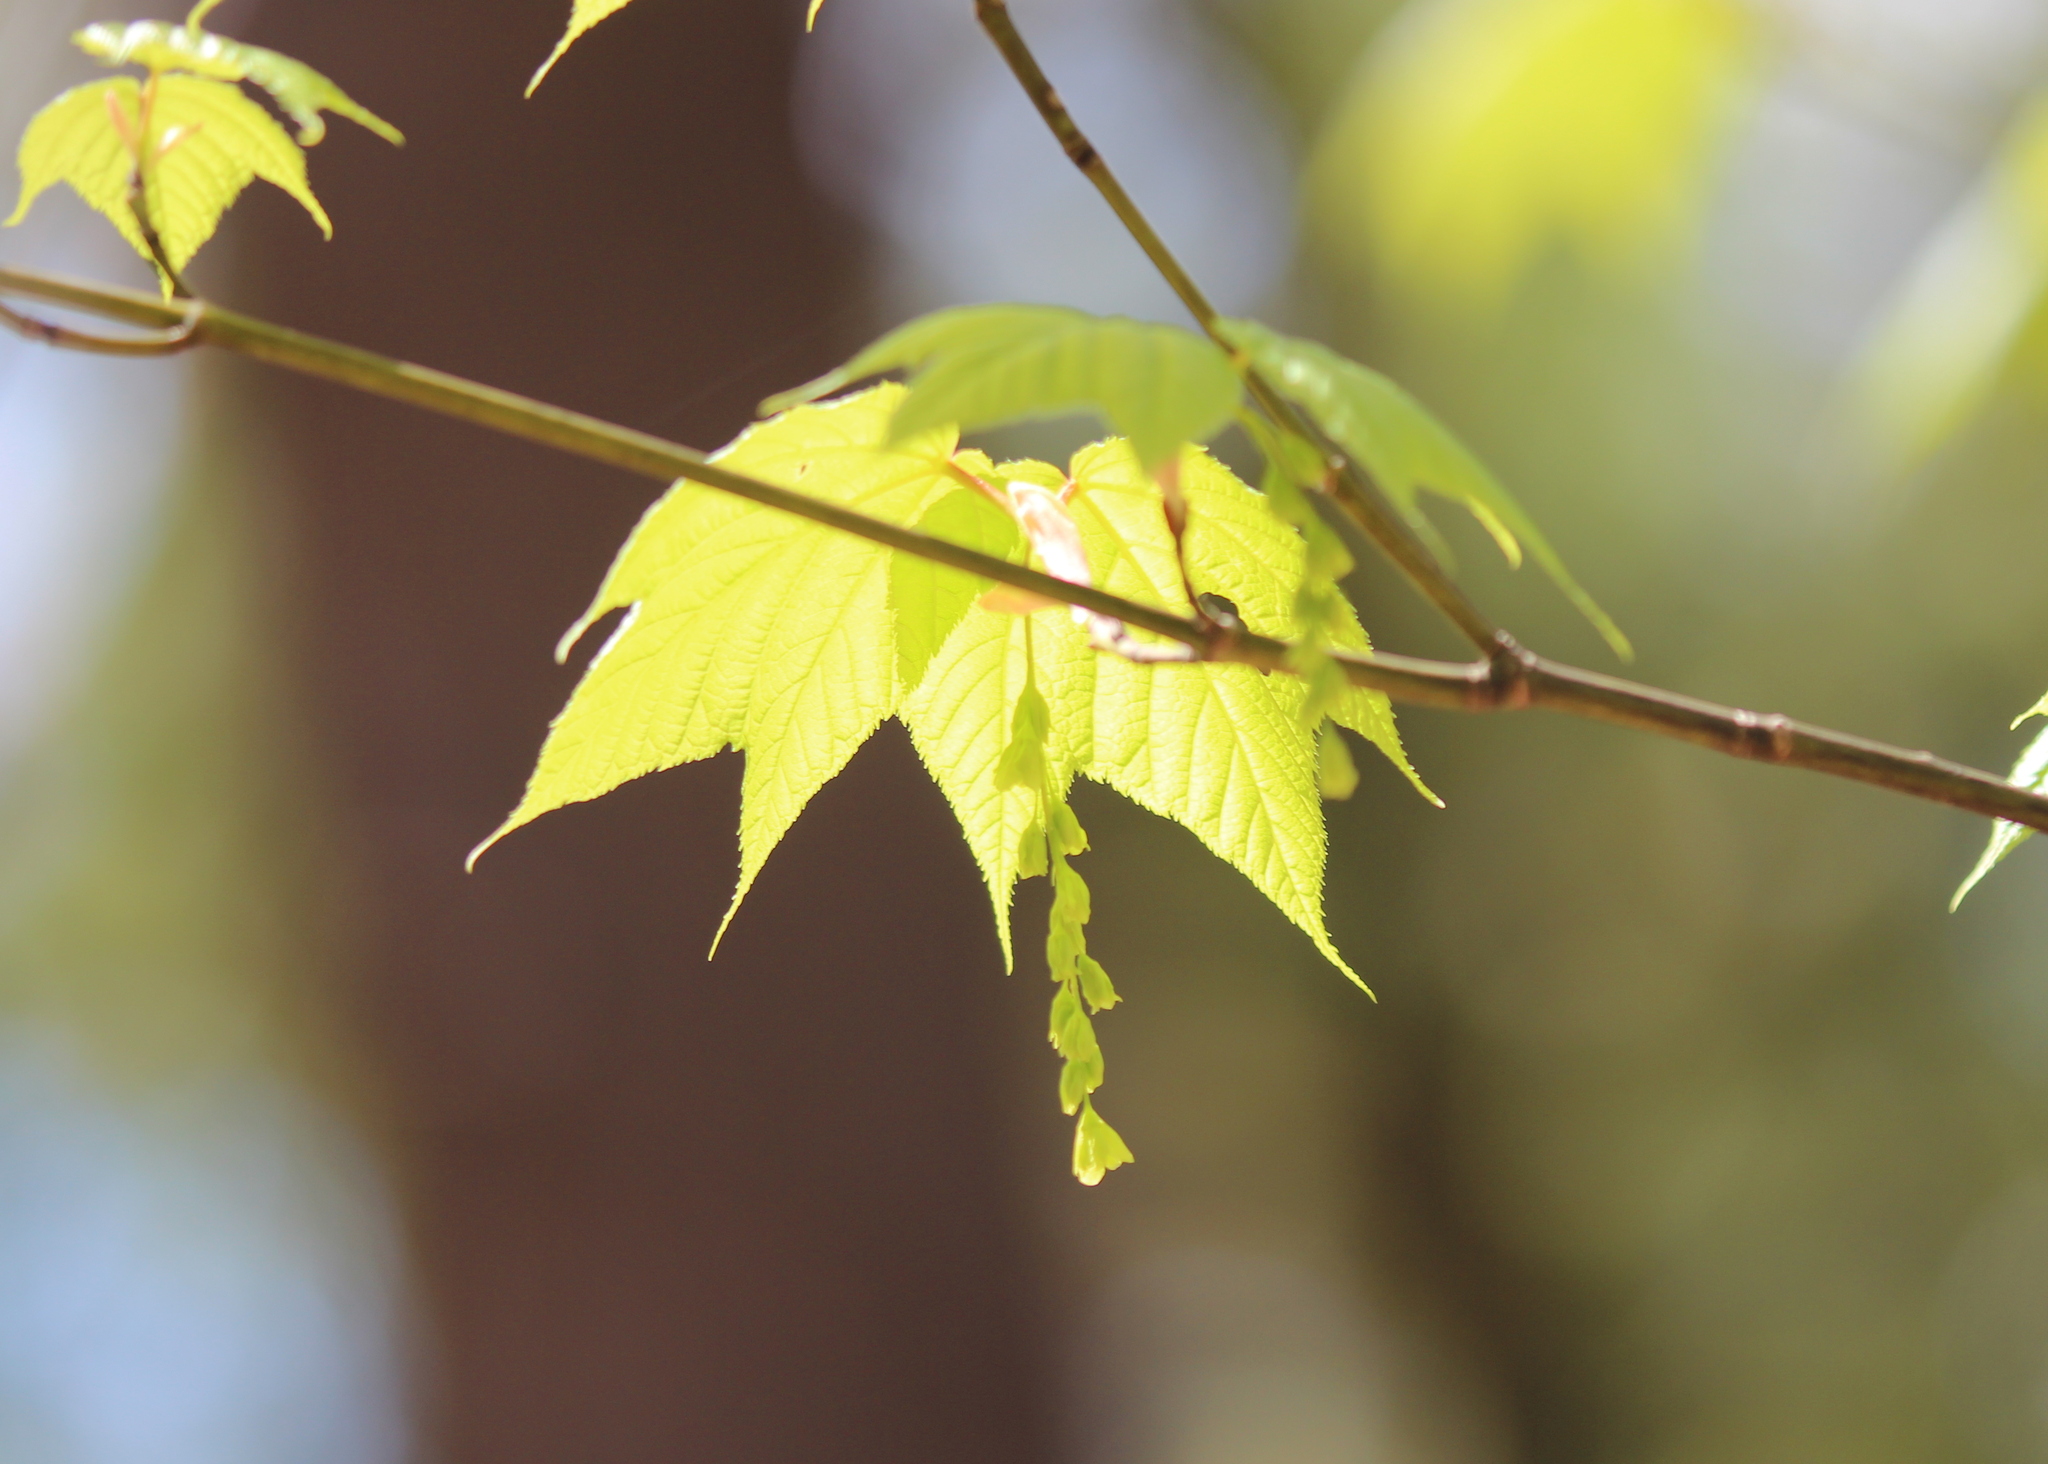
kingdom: Plantae
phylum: Tracheophyta
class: Magnoliopsida
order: Sapindales
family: Sapindaceae
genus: Acer
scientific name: Acer pensylvanicum
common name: Moosewood
